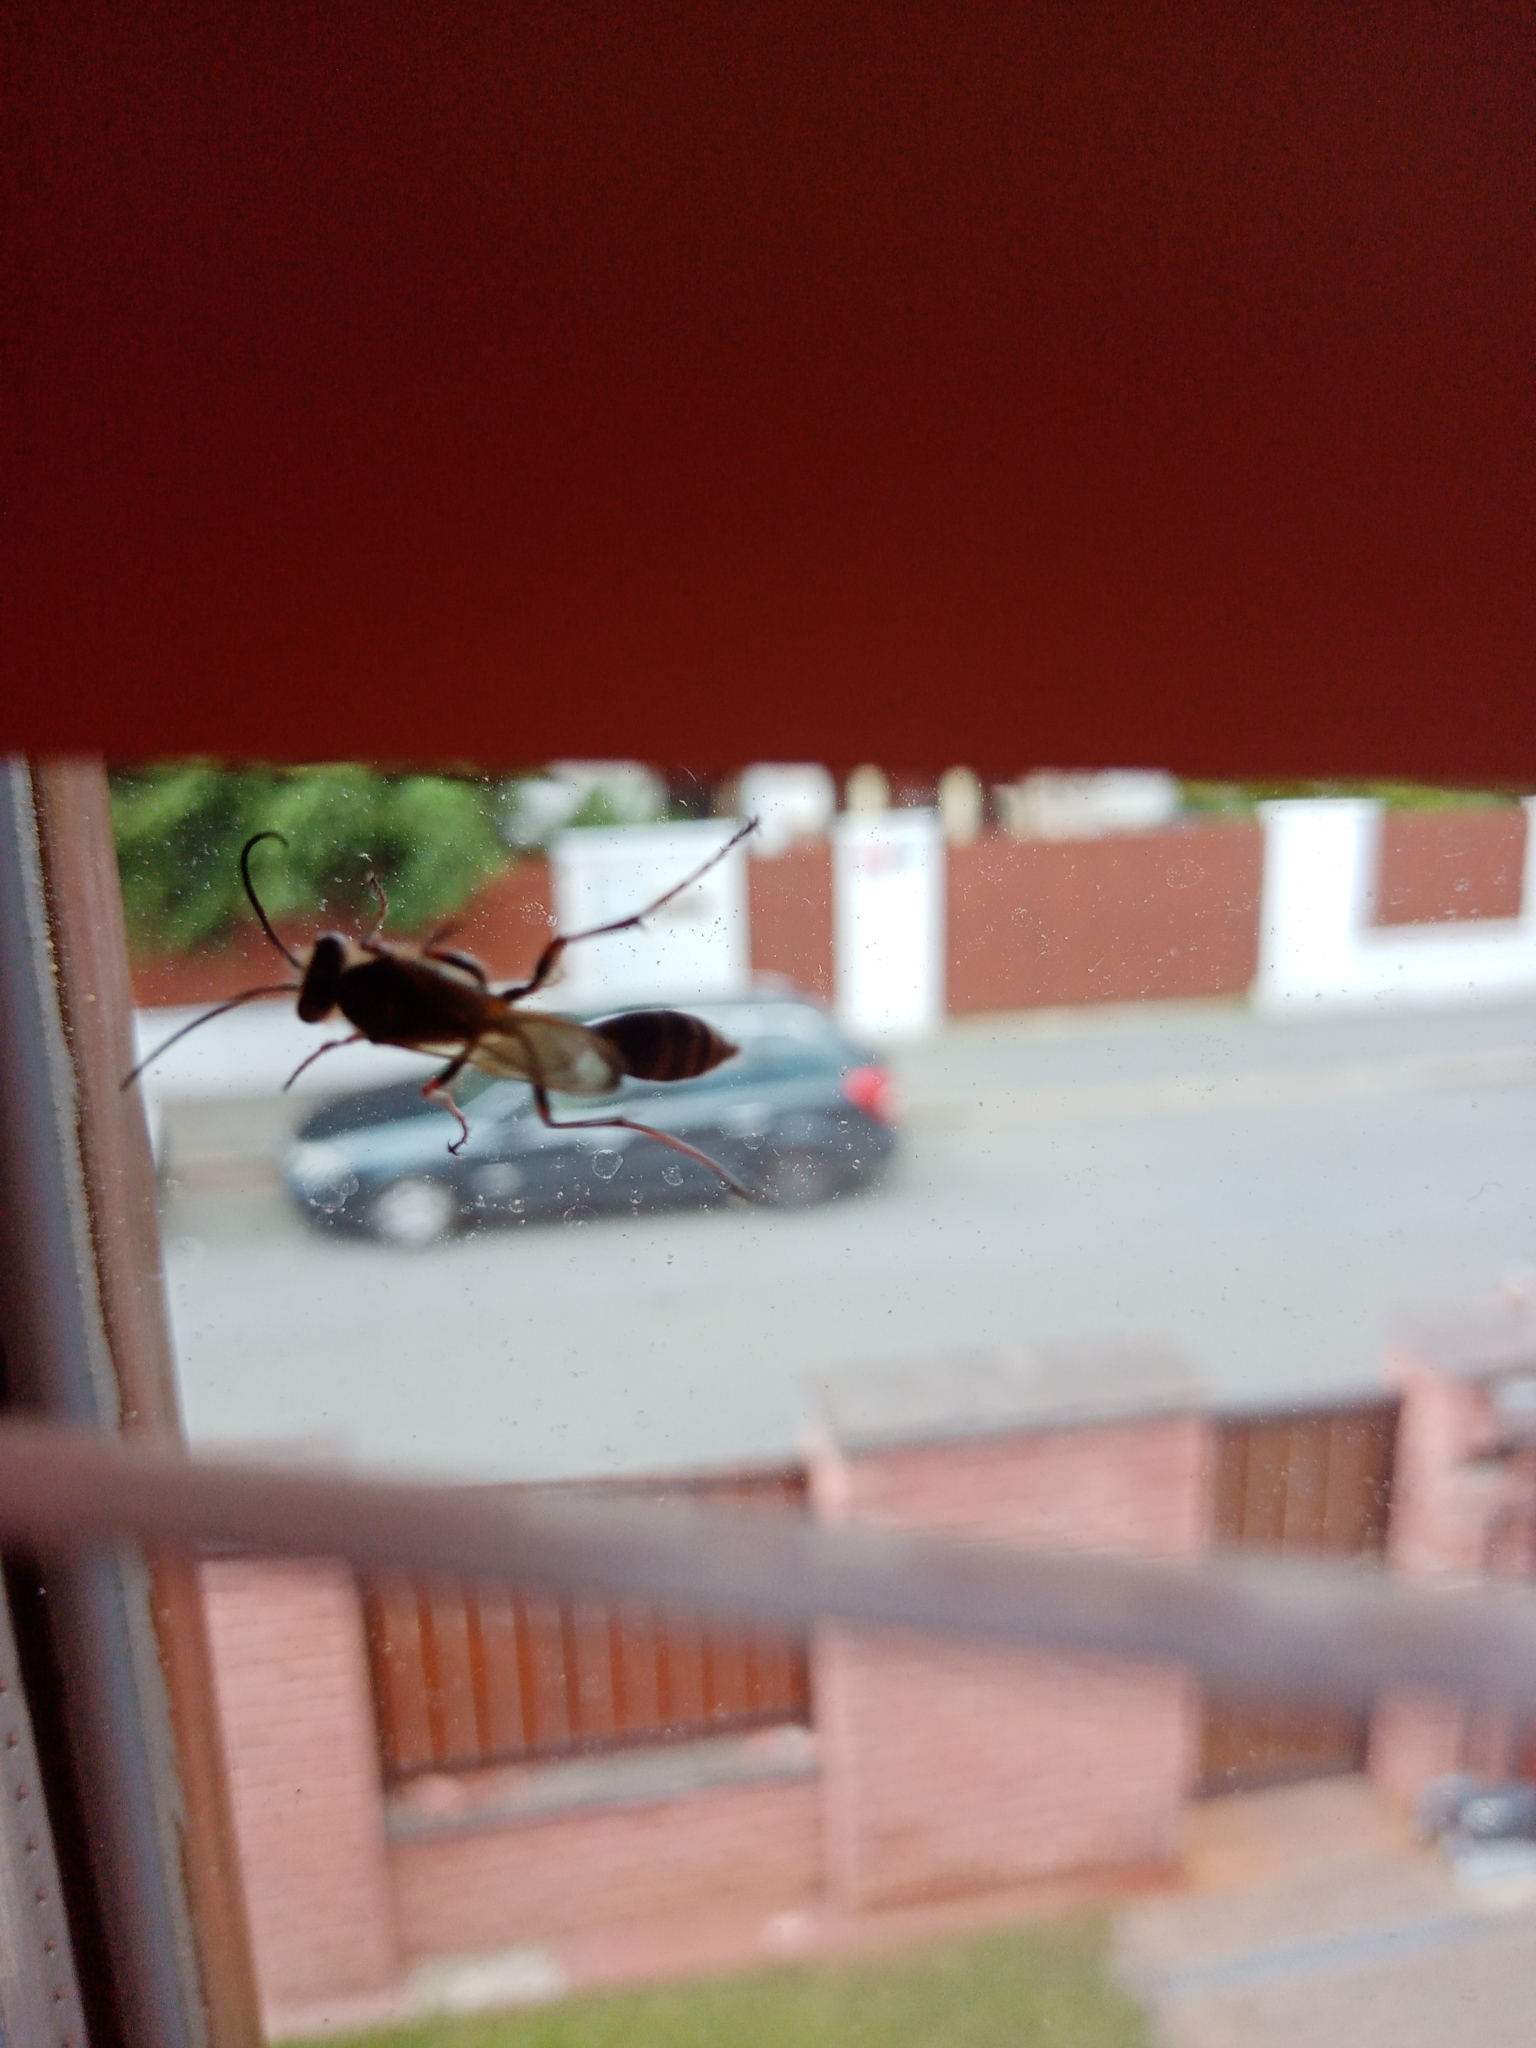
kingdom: Animalia
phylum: Arthropoda
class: Insecta
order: Hymenoptera
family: Sphecidae
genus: Sceliphron
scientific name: Sceliphron curvatum
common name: Pèlopèe
